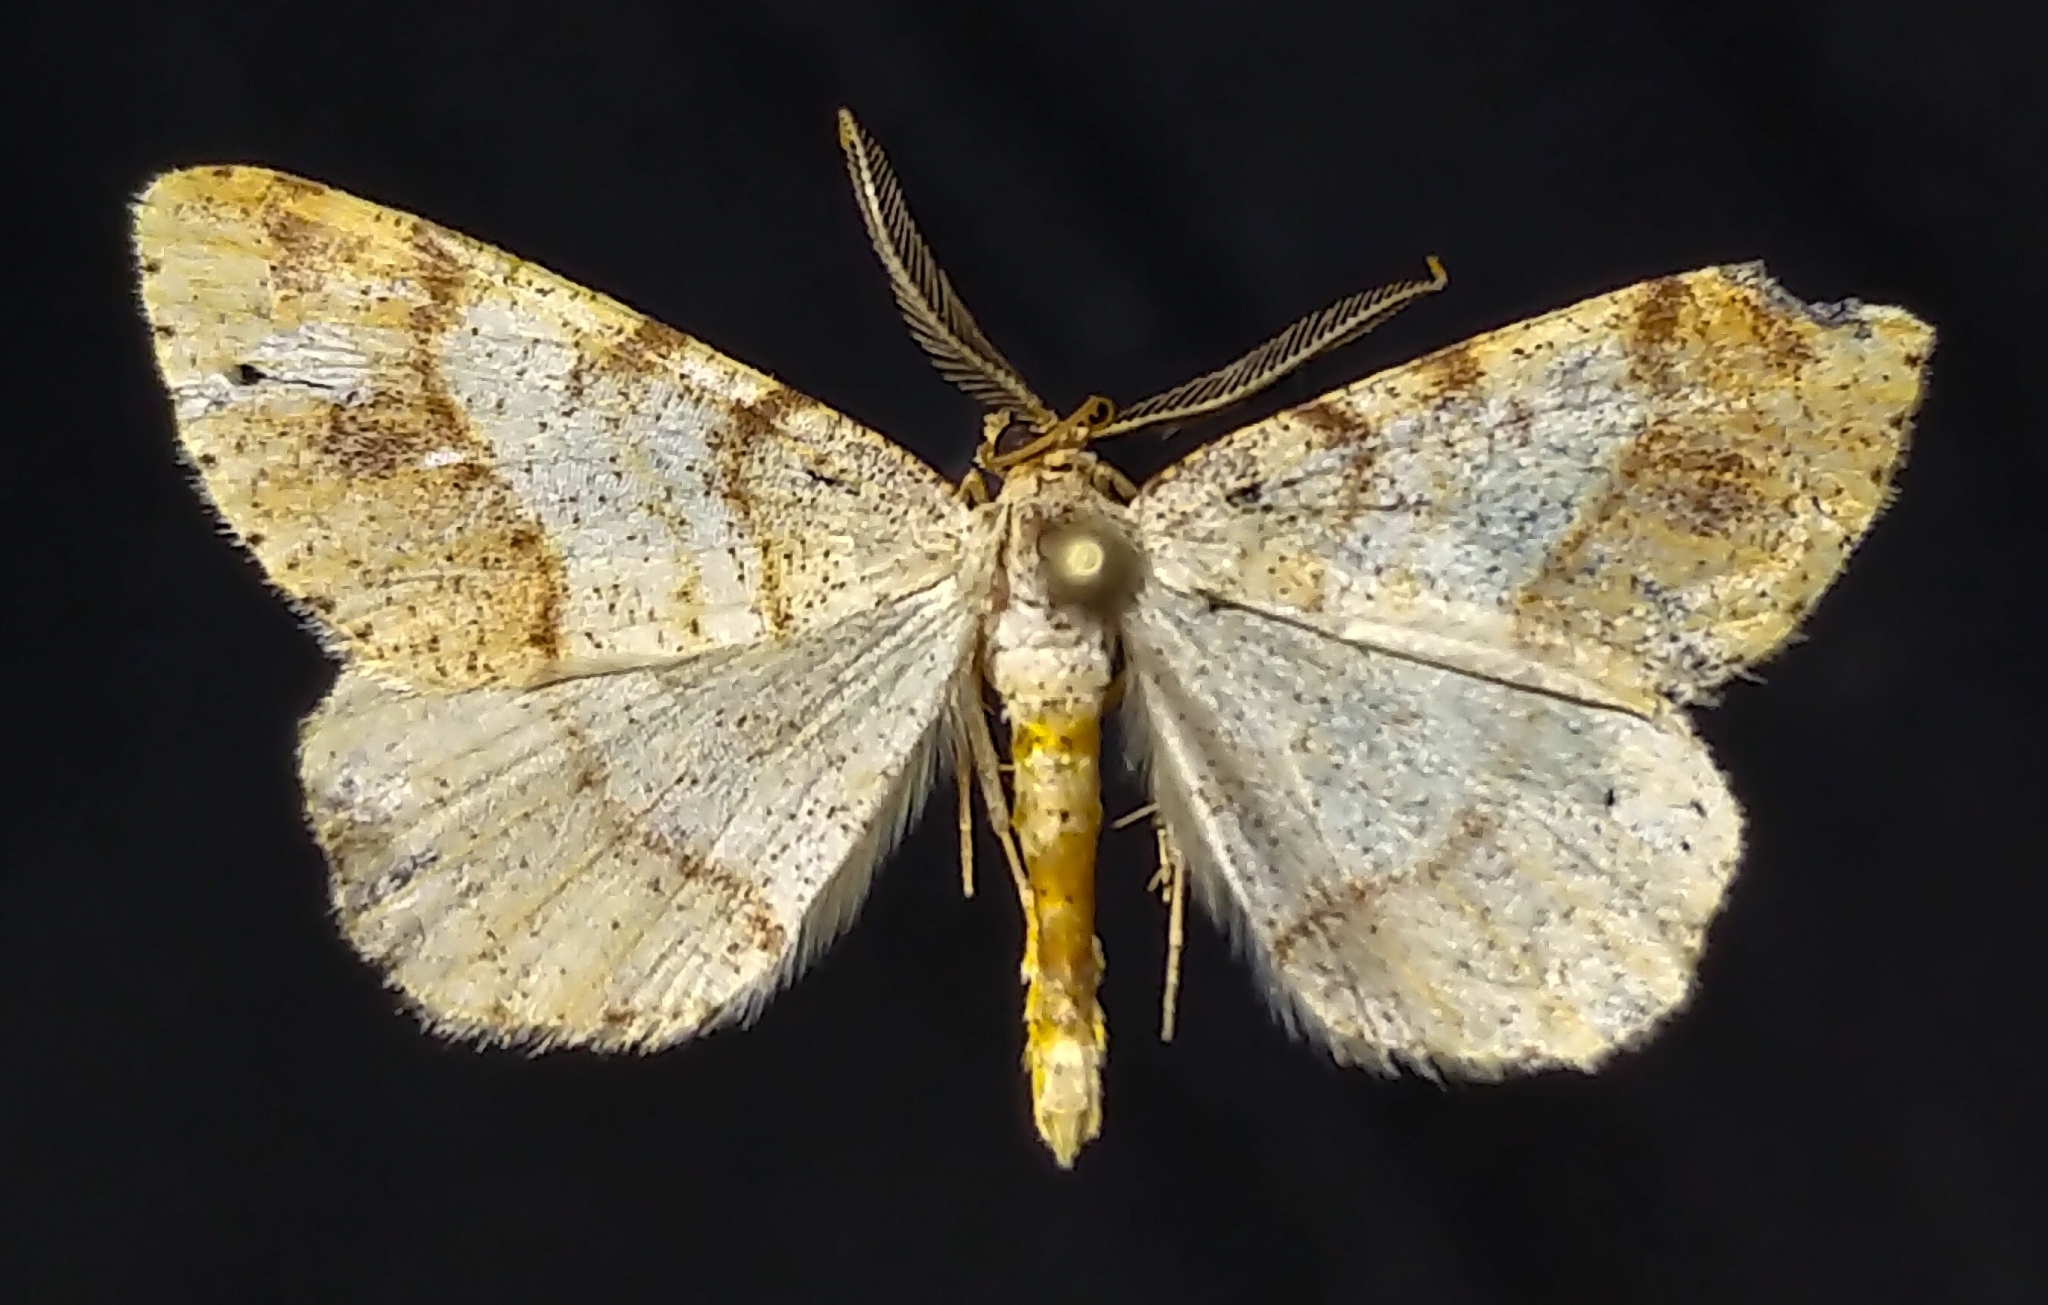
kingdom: Animalia
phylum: Arthropoda
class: Insecta
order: Lepidoptera
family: Geometridae
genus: Macaria
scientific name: Macaria plumosata
